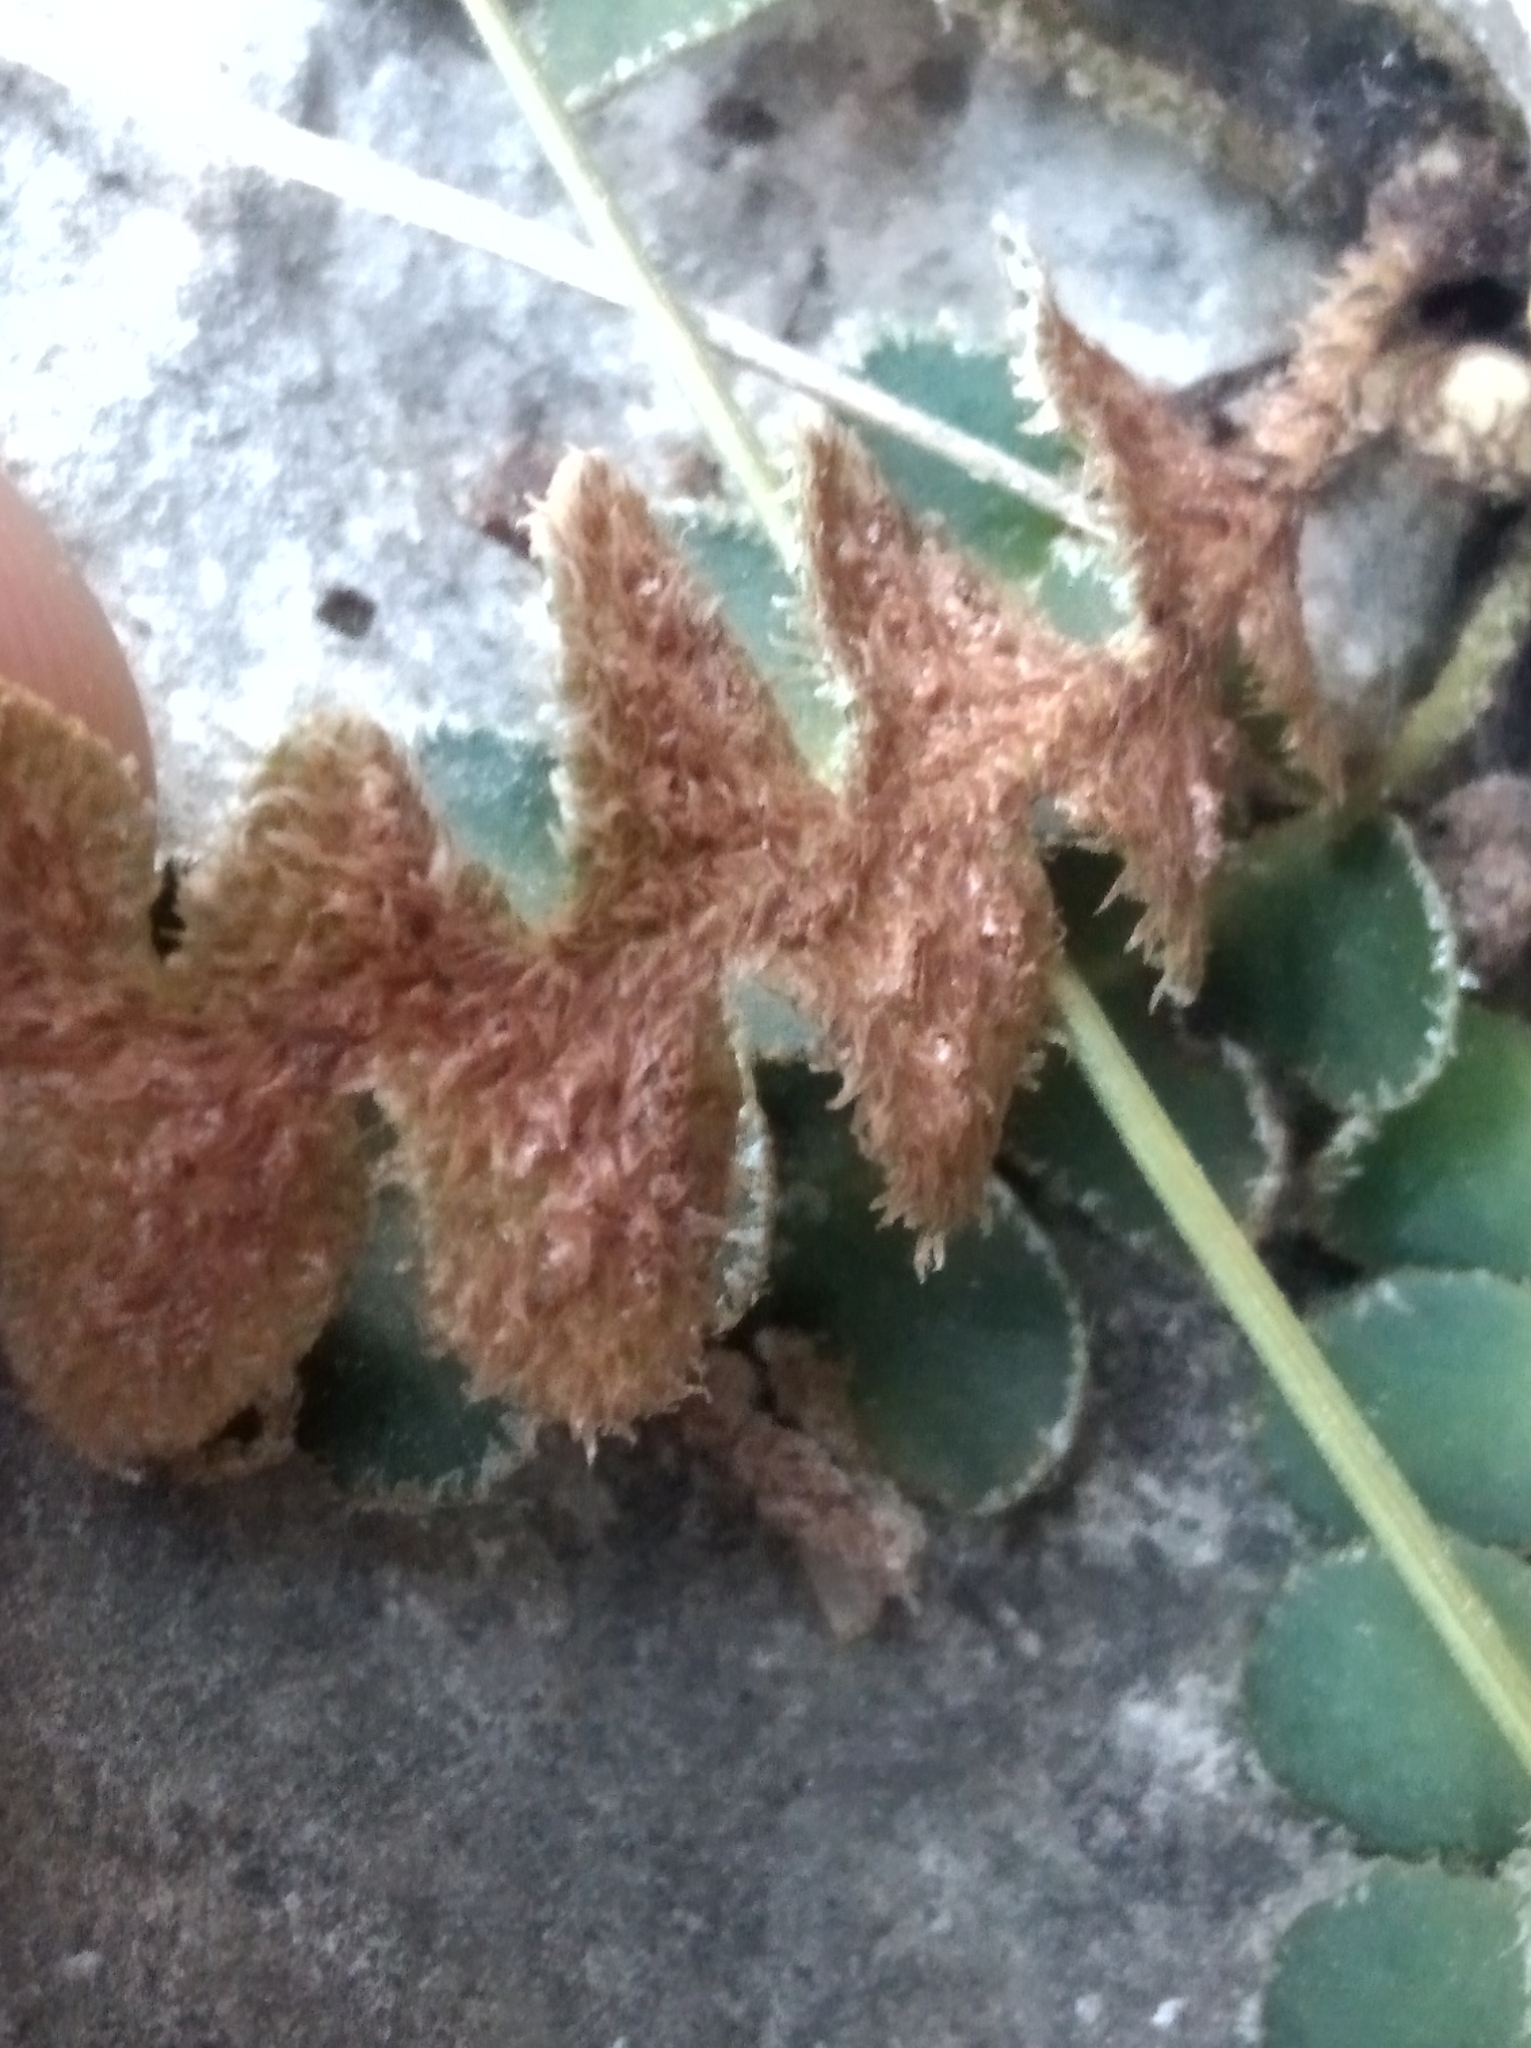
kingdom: Plantae
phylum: Tracheophyta
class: Polypodiopsida
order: Polypodiales
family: Aspleniaceae
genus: Asplenium
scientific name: Asplenium ceterach
